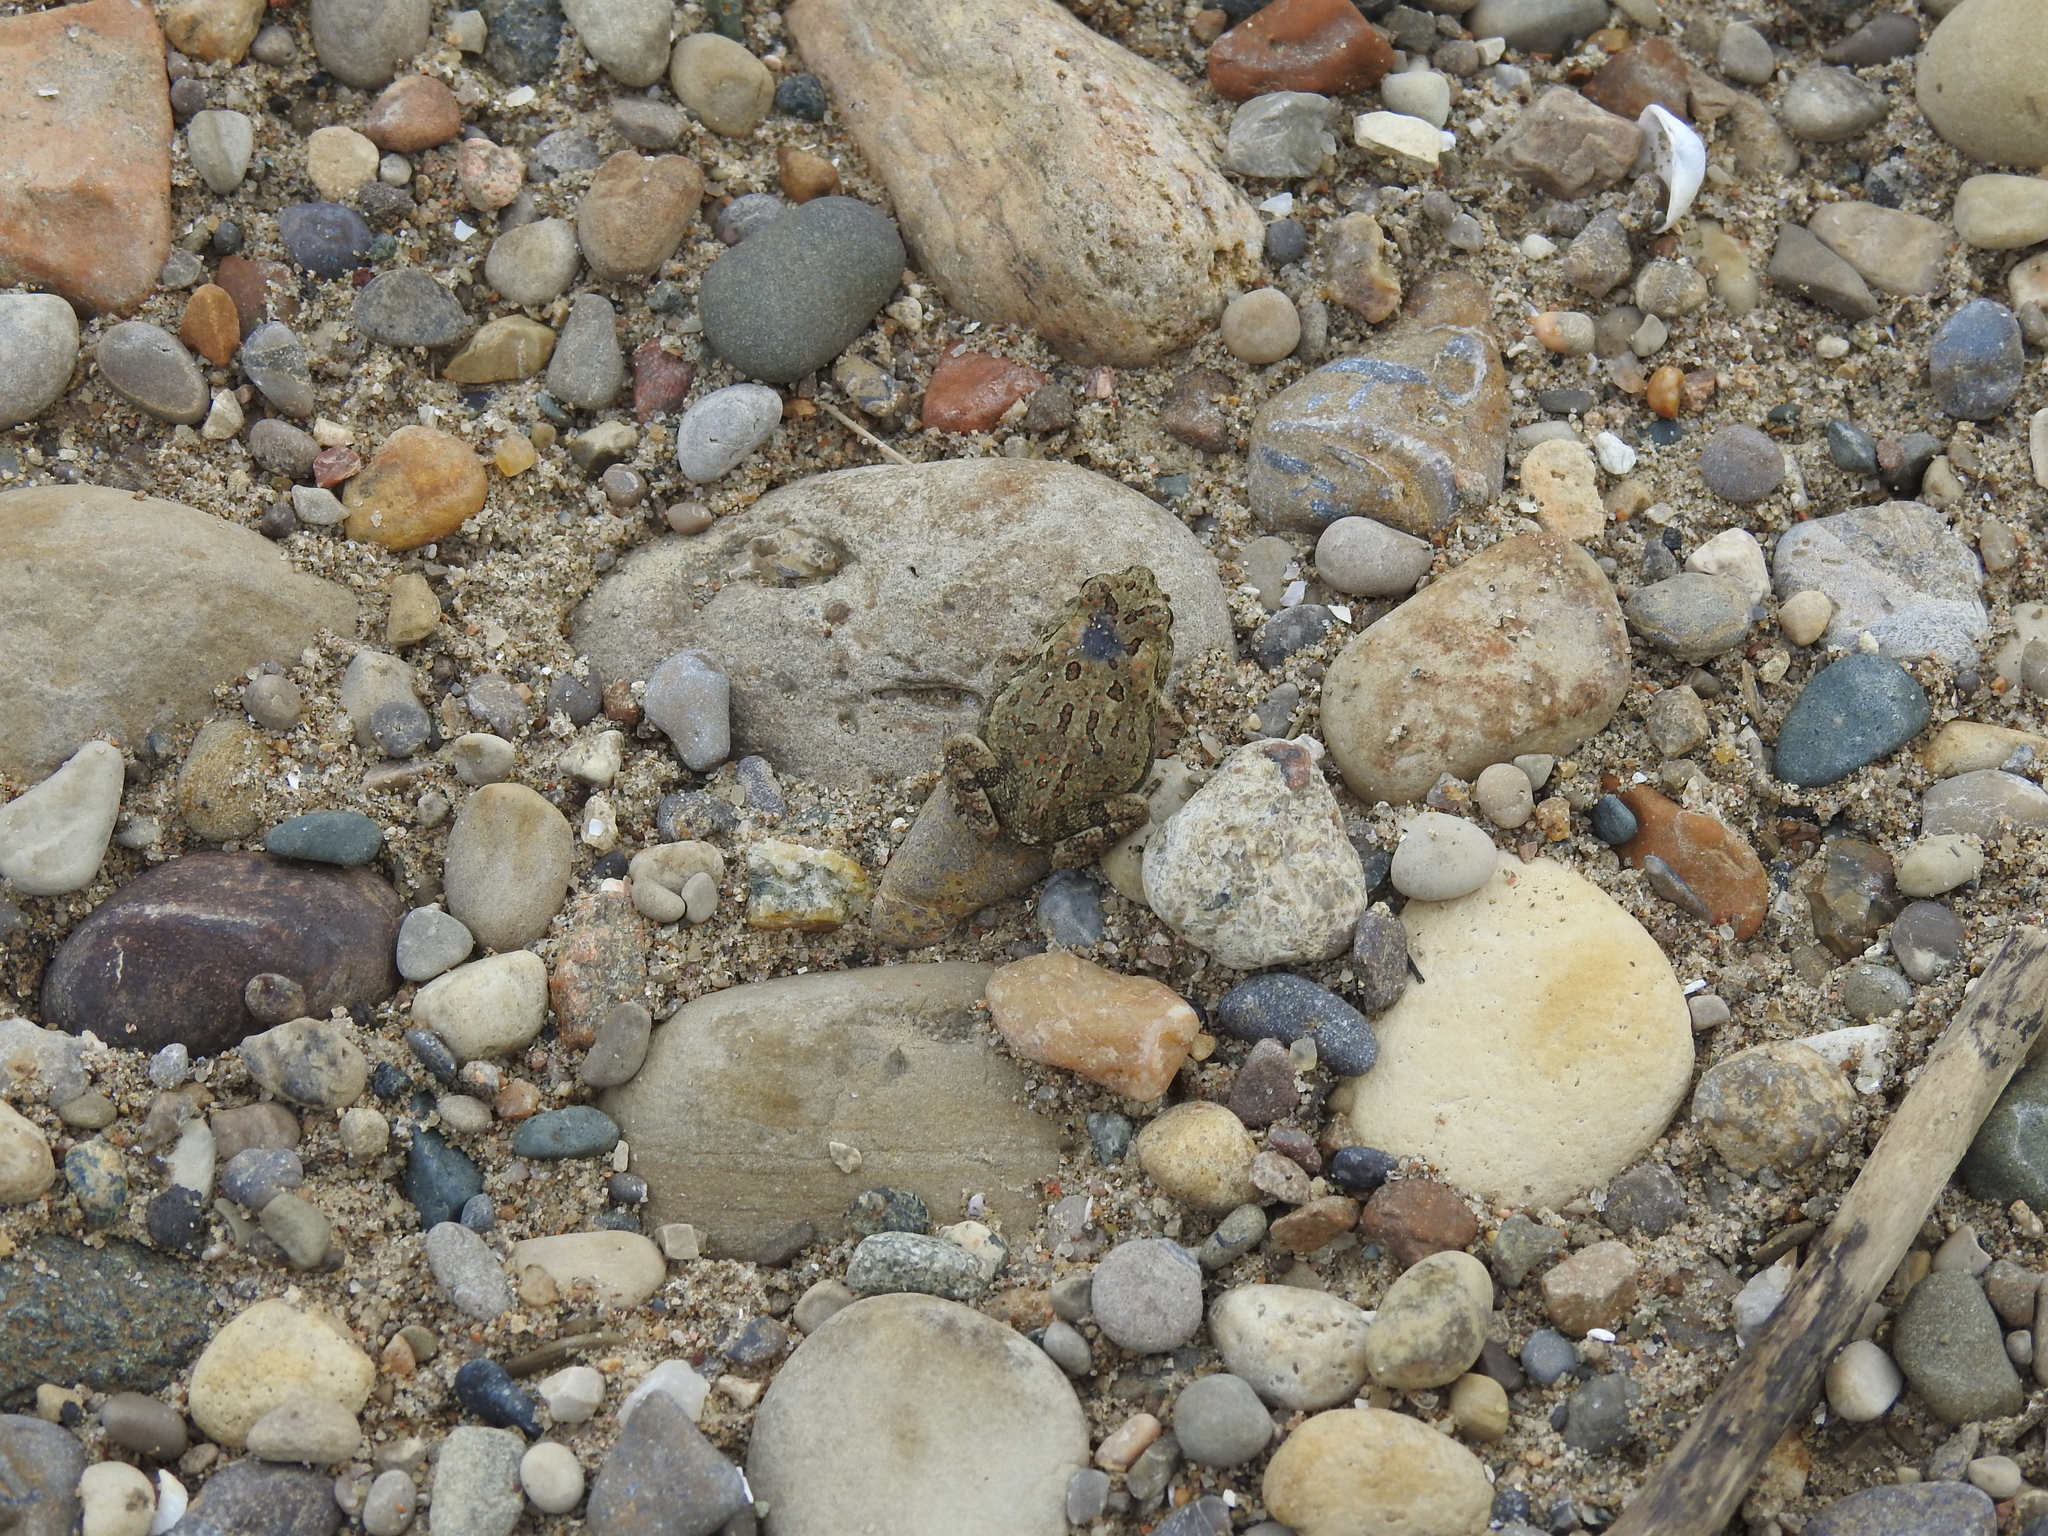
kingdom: Animalia
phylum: Chordata
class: Amphibia
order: Anura
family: Bufonidae
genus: Anaxyrus
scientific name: Anaxyrus fowleri
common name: Fowler's toad
